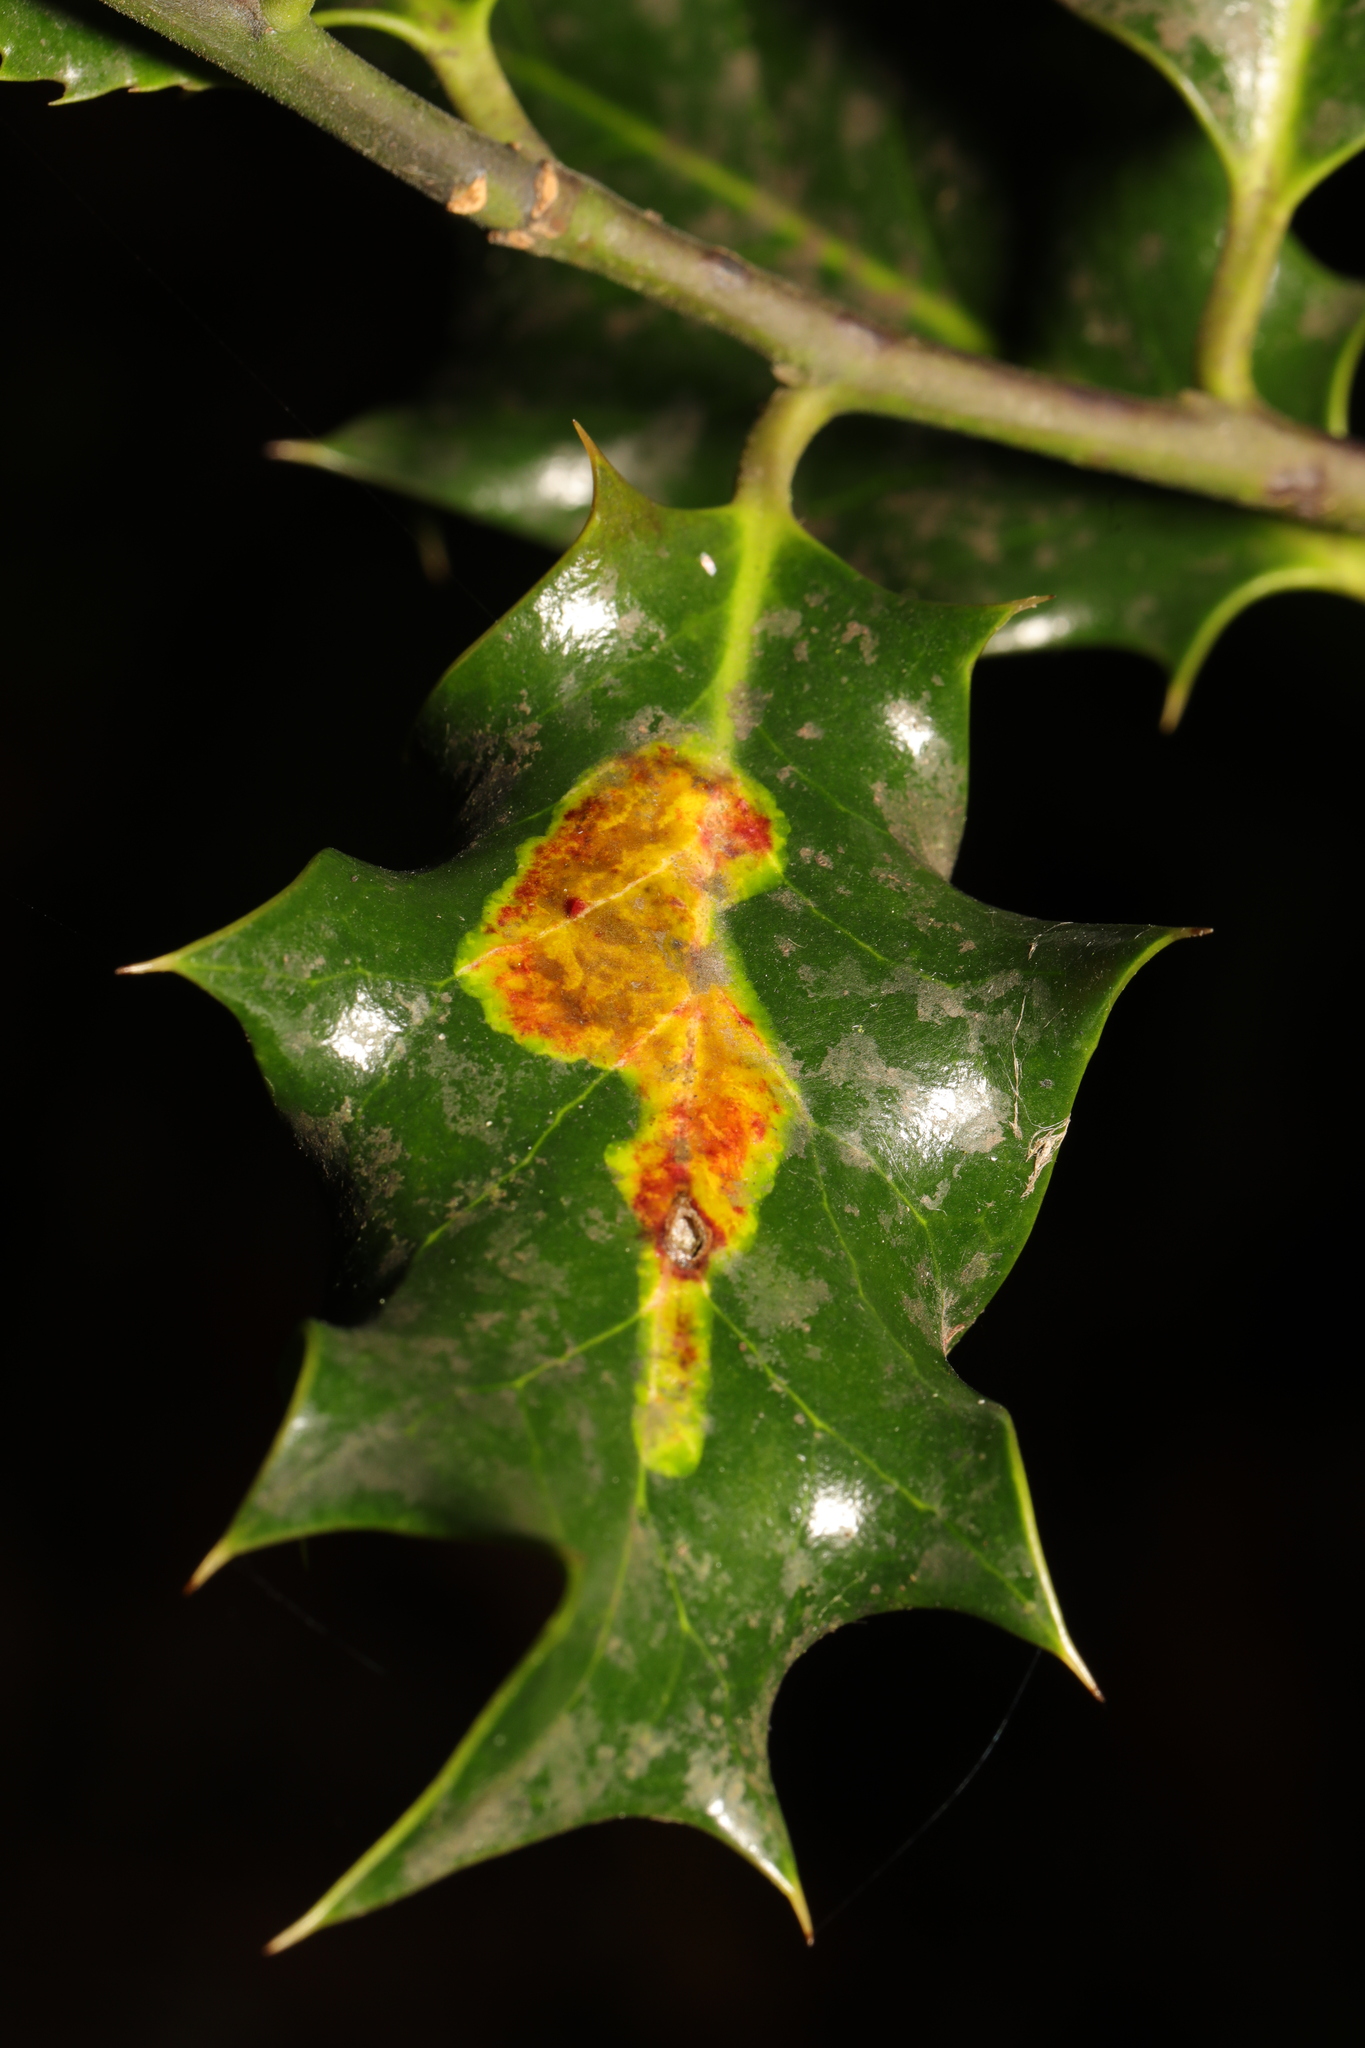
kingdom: Animalia
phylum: Arthropoda
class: Insecta
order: Diptera
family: Agromyzidae
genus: Phytomyza
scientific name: Phytomyza ilicis
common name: Holly leafminer
